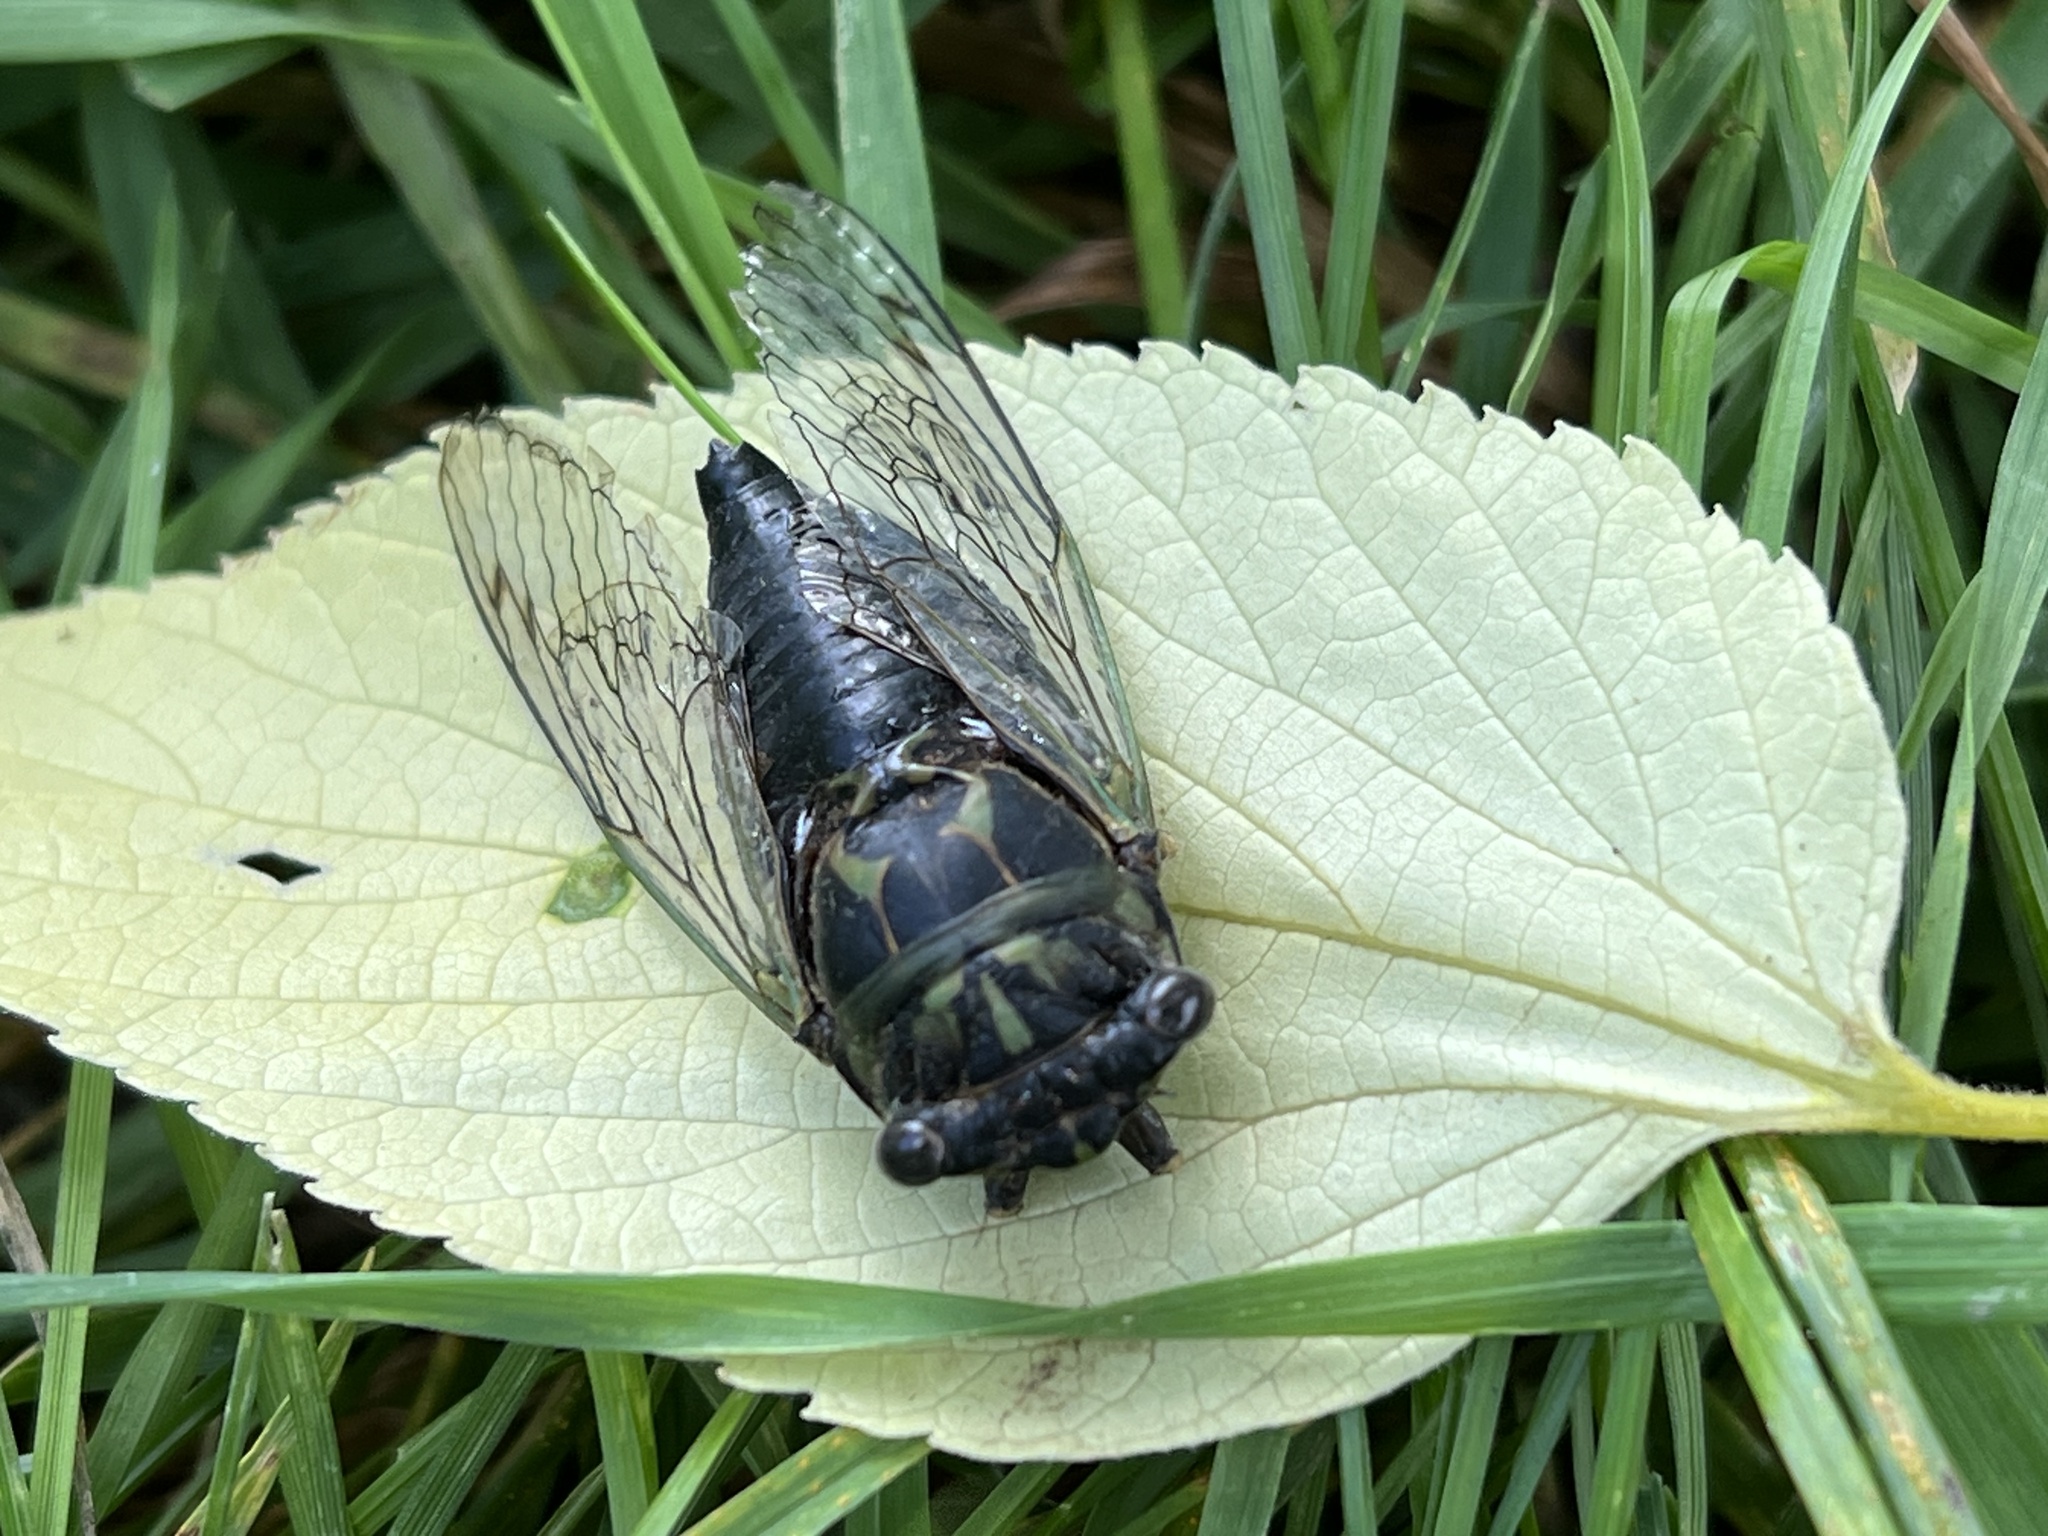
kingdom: Animalia
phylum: Arthropoda
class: Insecta
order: Hemiptera
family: Cicadidae
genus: Neotibicen
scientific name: Neotibicen canicularis
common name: God-day cicada
